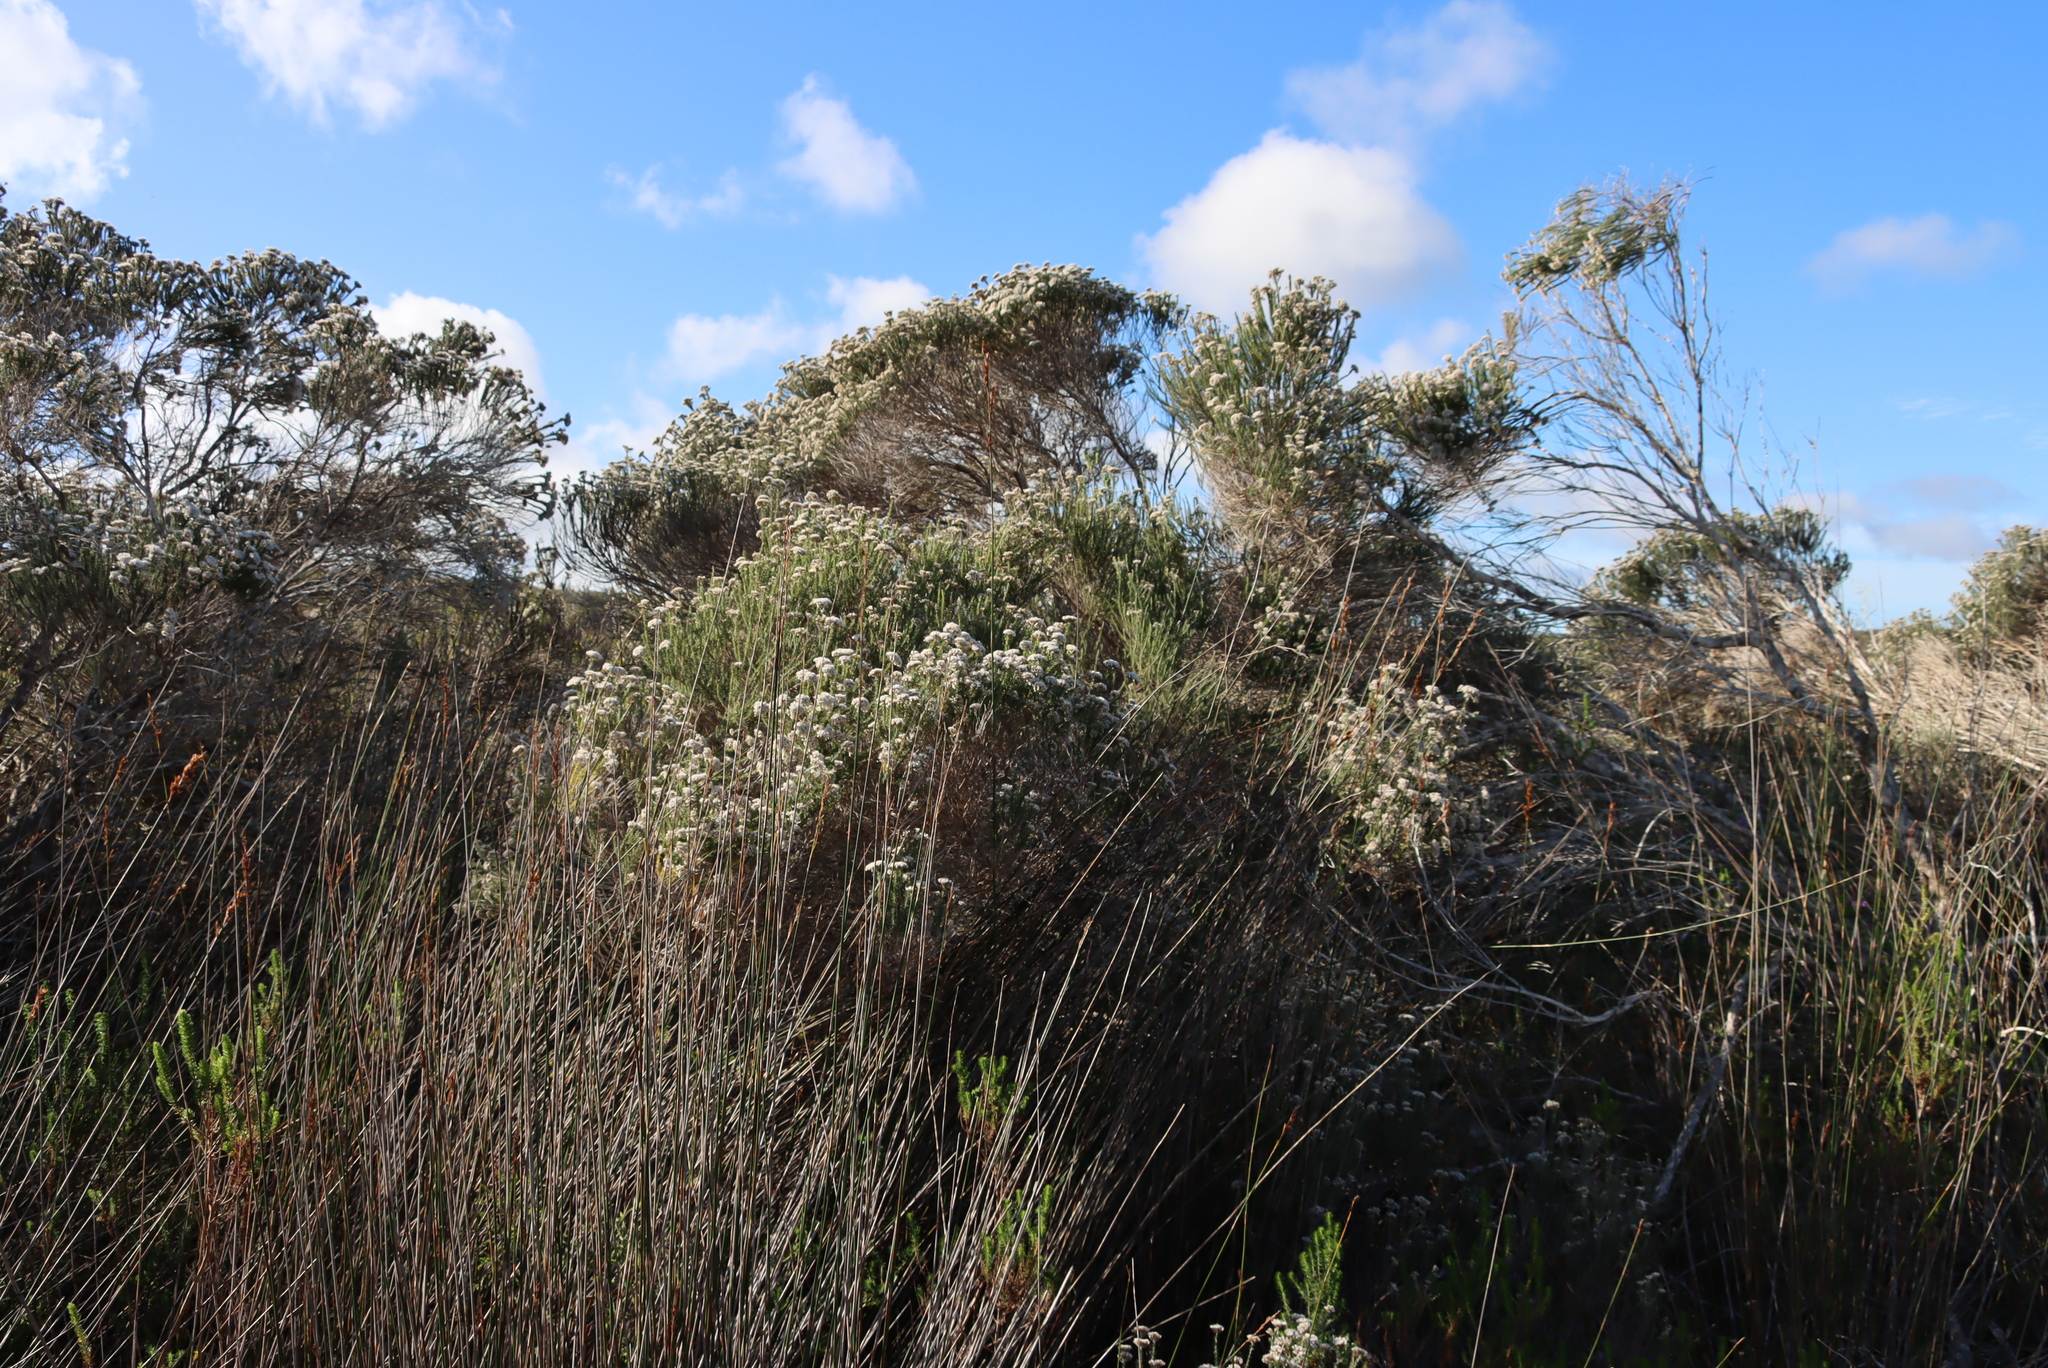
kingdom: Plantae
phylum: Tracheophyta
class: Magnoliopsida
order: Asterales
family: Asteraceae
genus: Metalasia
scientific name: Metalasia densa
